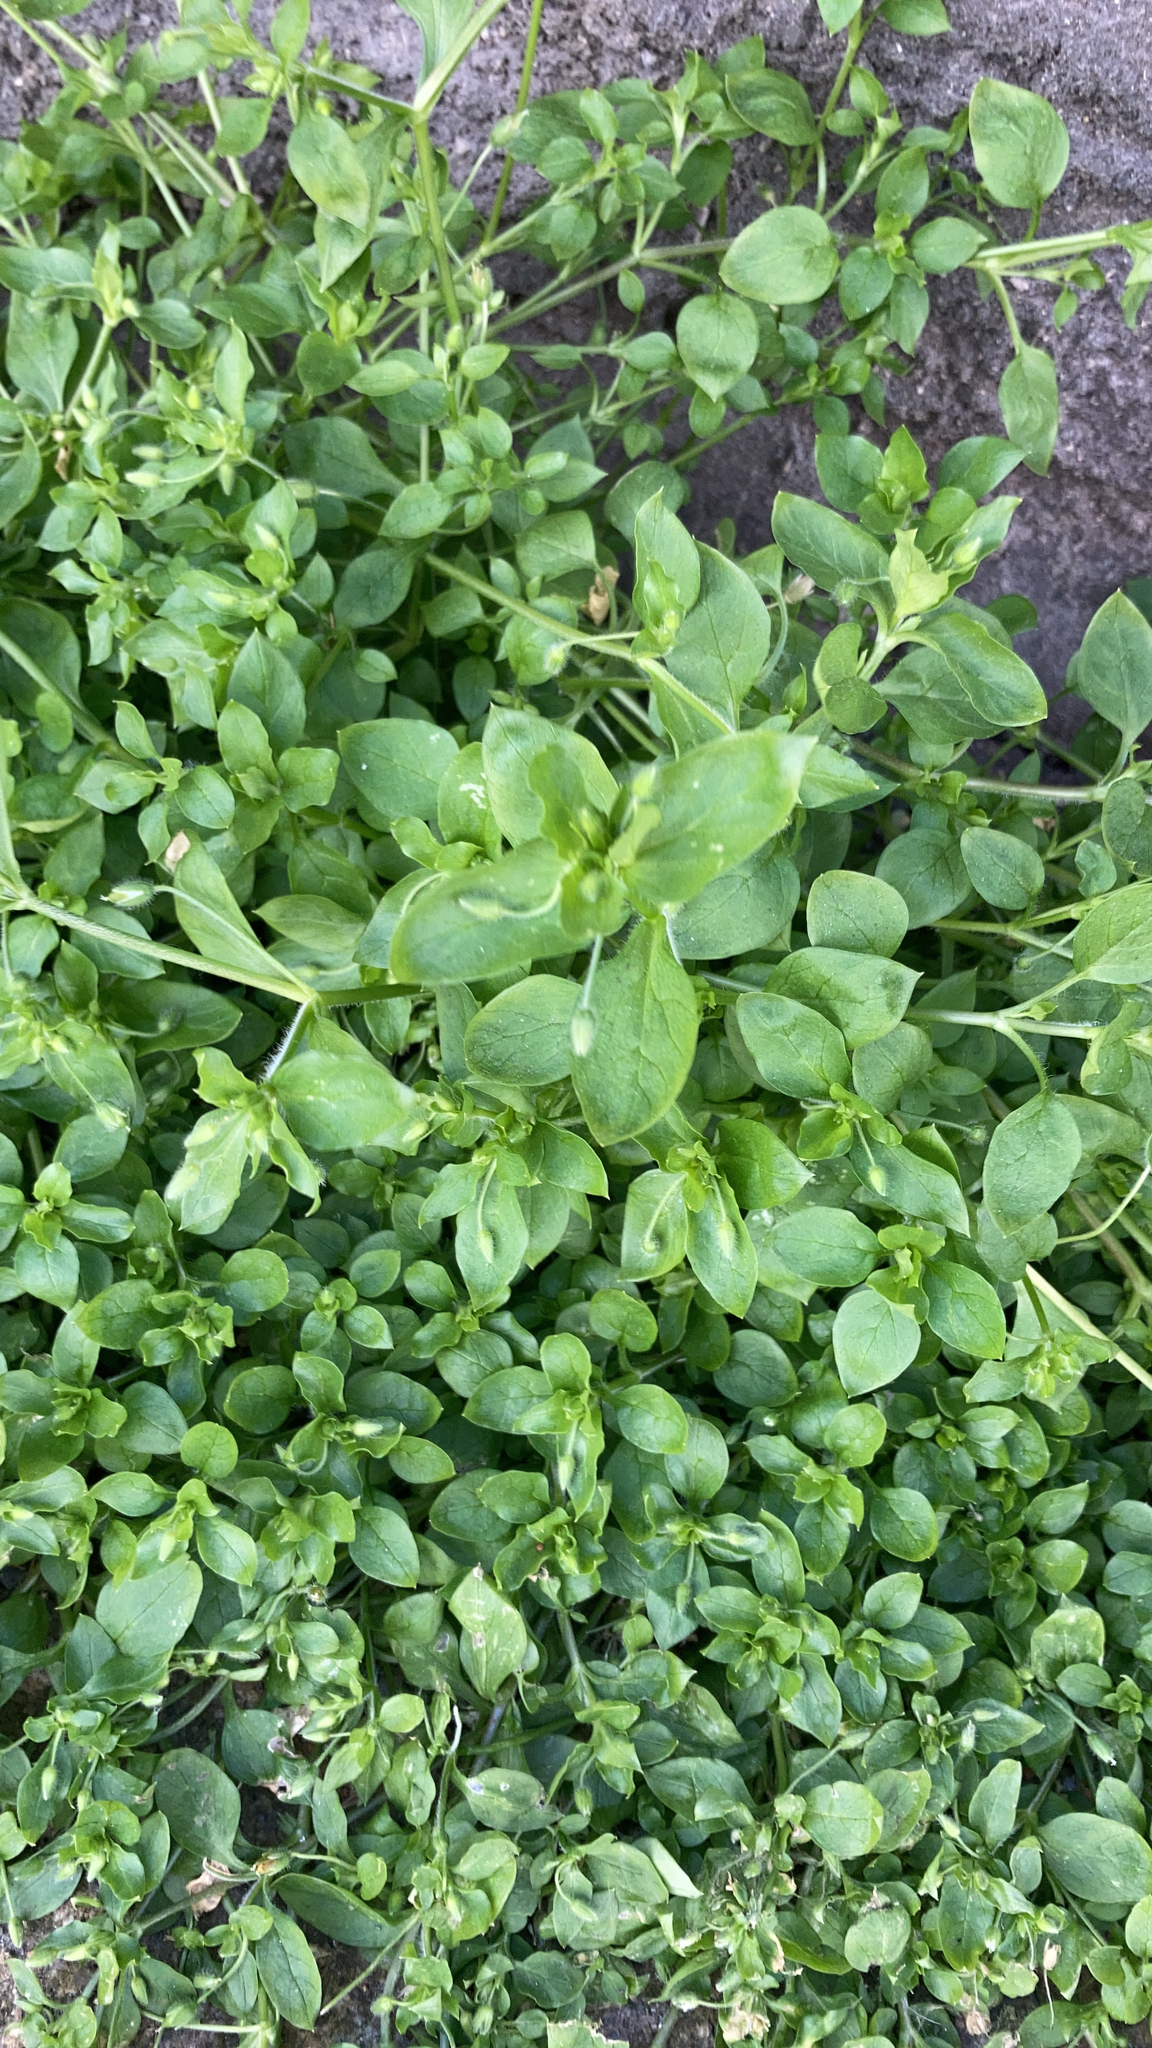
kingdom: Plantae
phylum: Tracheophyta
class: Magnoliopsida
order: Caryophyllales
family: Caryophyllaceae
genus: Stellaria
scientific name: Stellaria media
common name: Common chickweed
